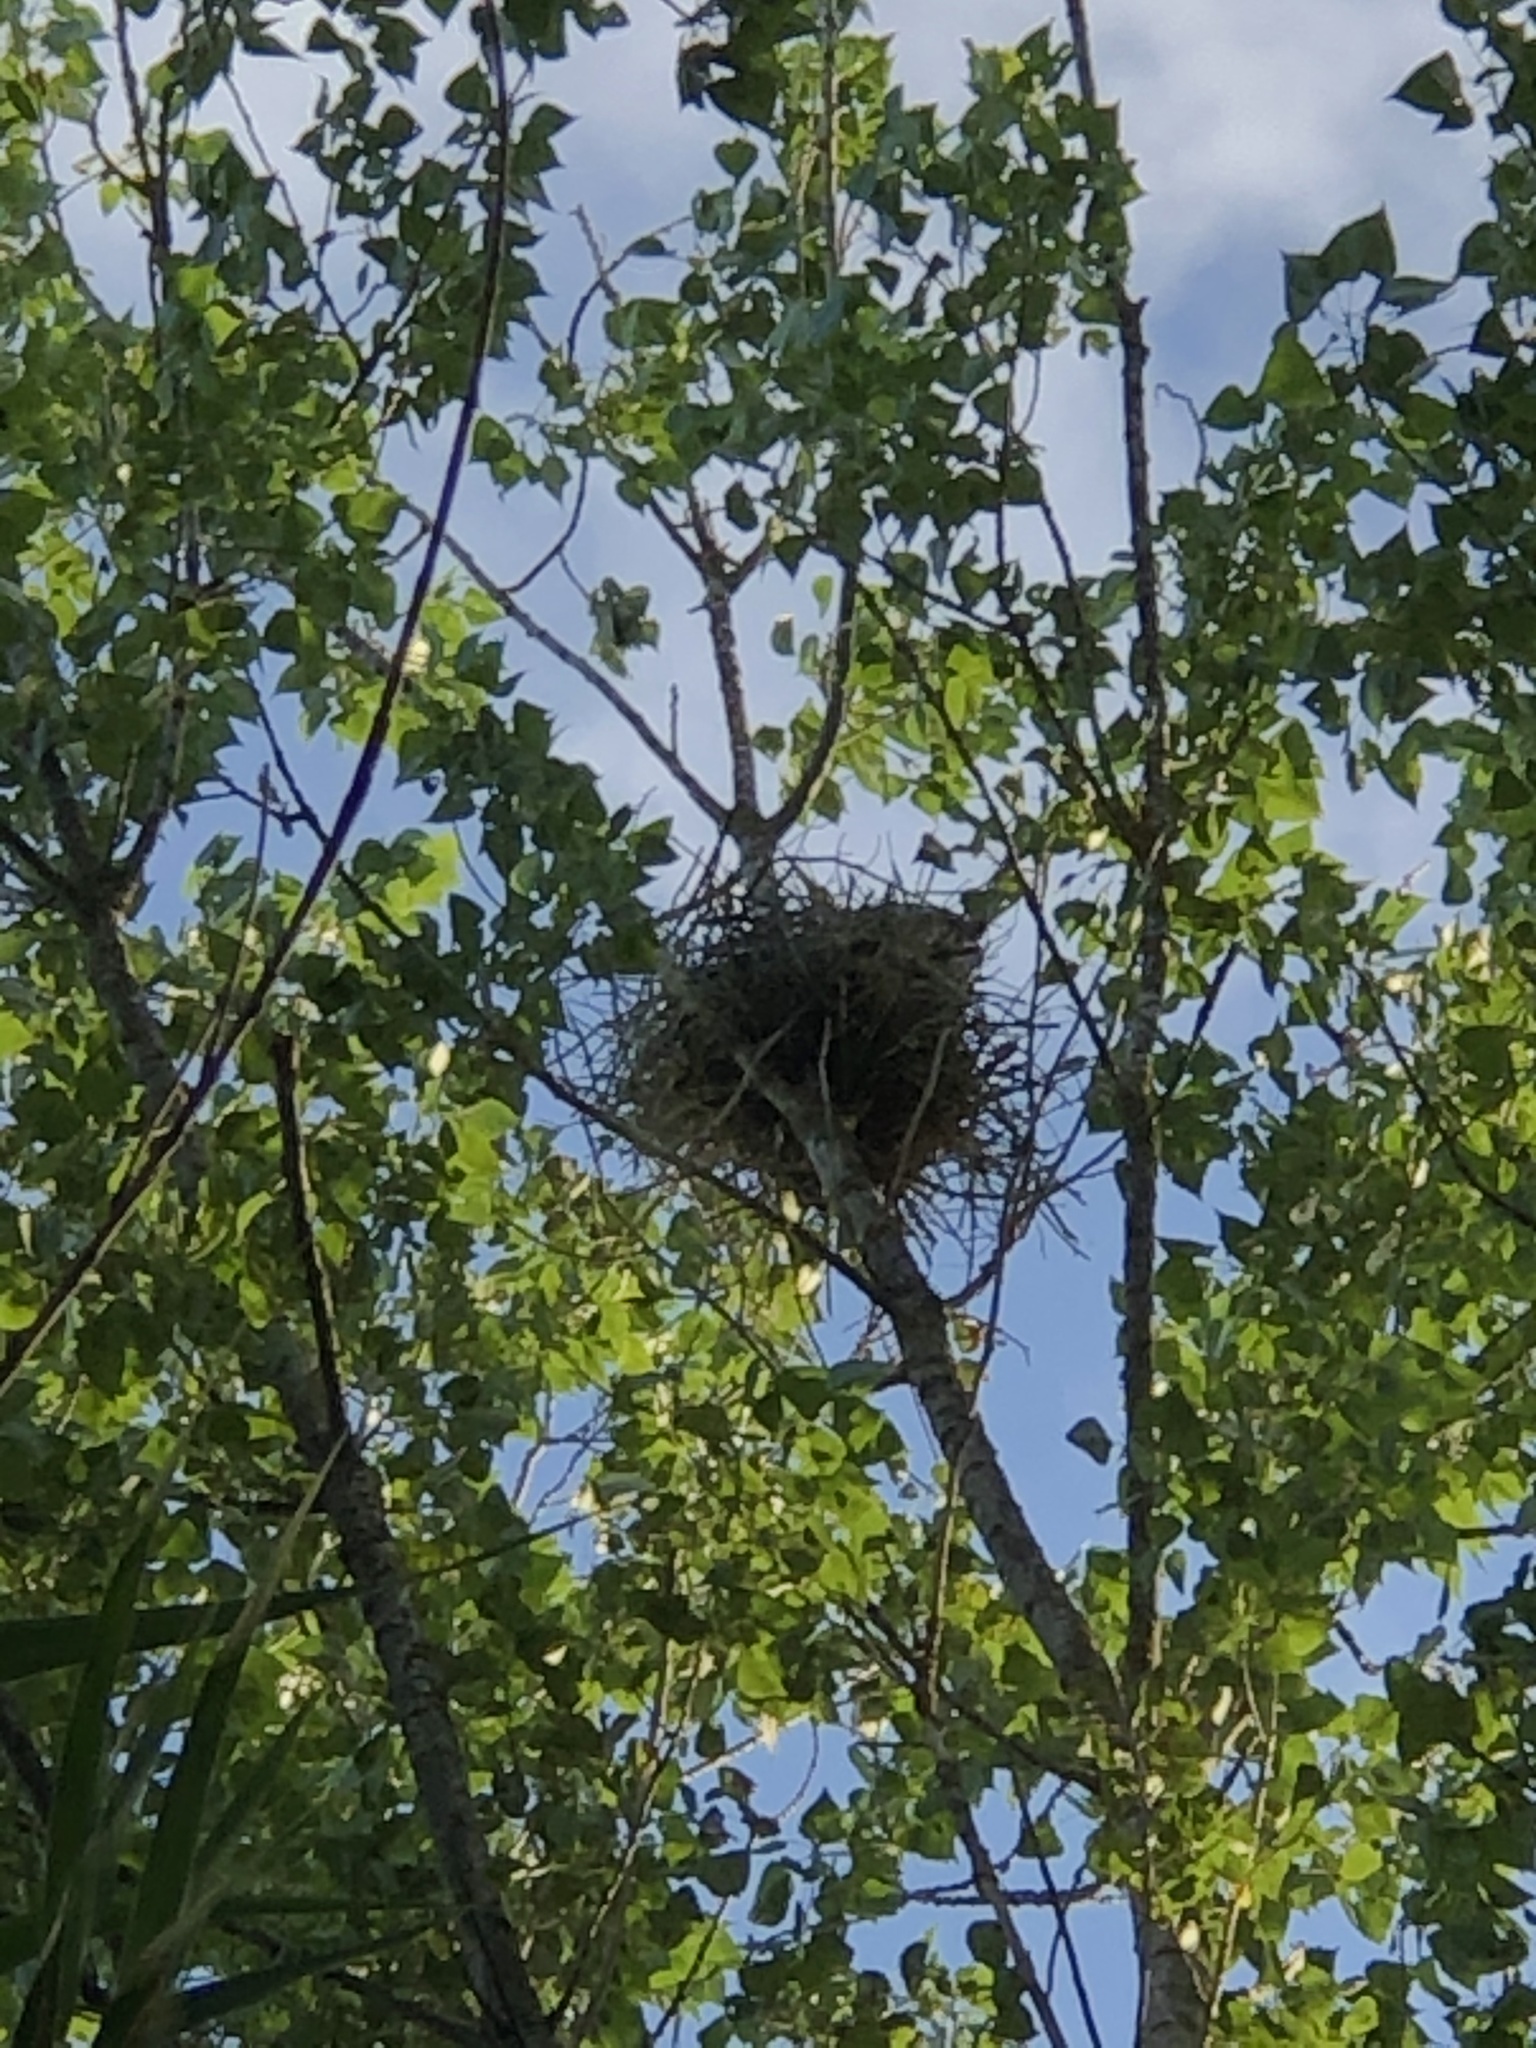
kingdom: Animalia
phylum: Chordata
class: Aves
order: Pelecaniformes
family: Ardeidae
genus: Ardea
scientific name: Ardea cinerea
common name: Grey heron
